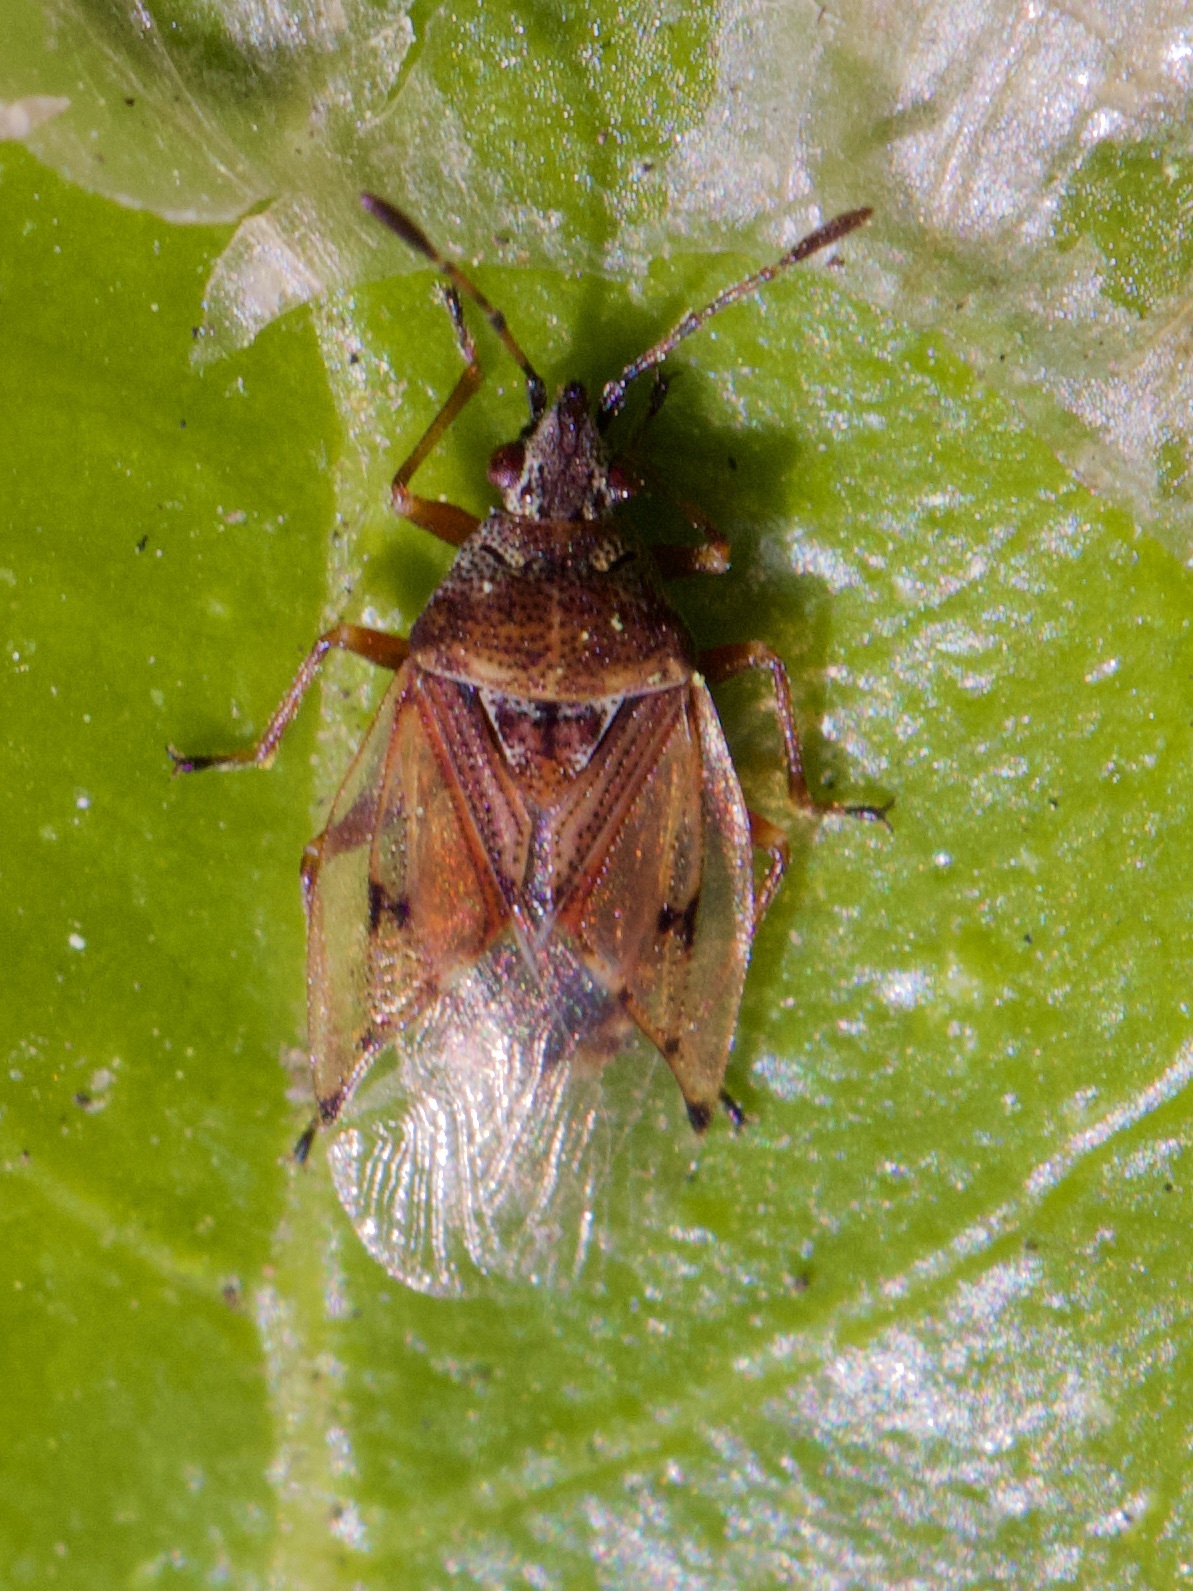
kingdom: Animalia
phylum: Arthropoda
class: Insecta
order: Hemiptera
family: Lygaeidae
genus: Kleidocerys
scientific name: Kleidocerys resedae
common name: Birch catkin bug
